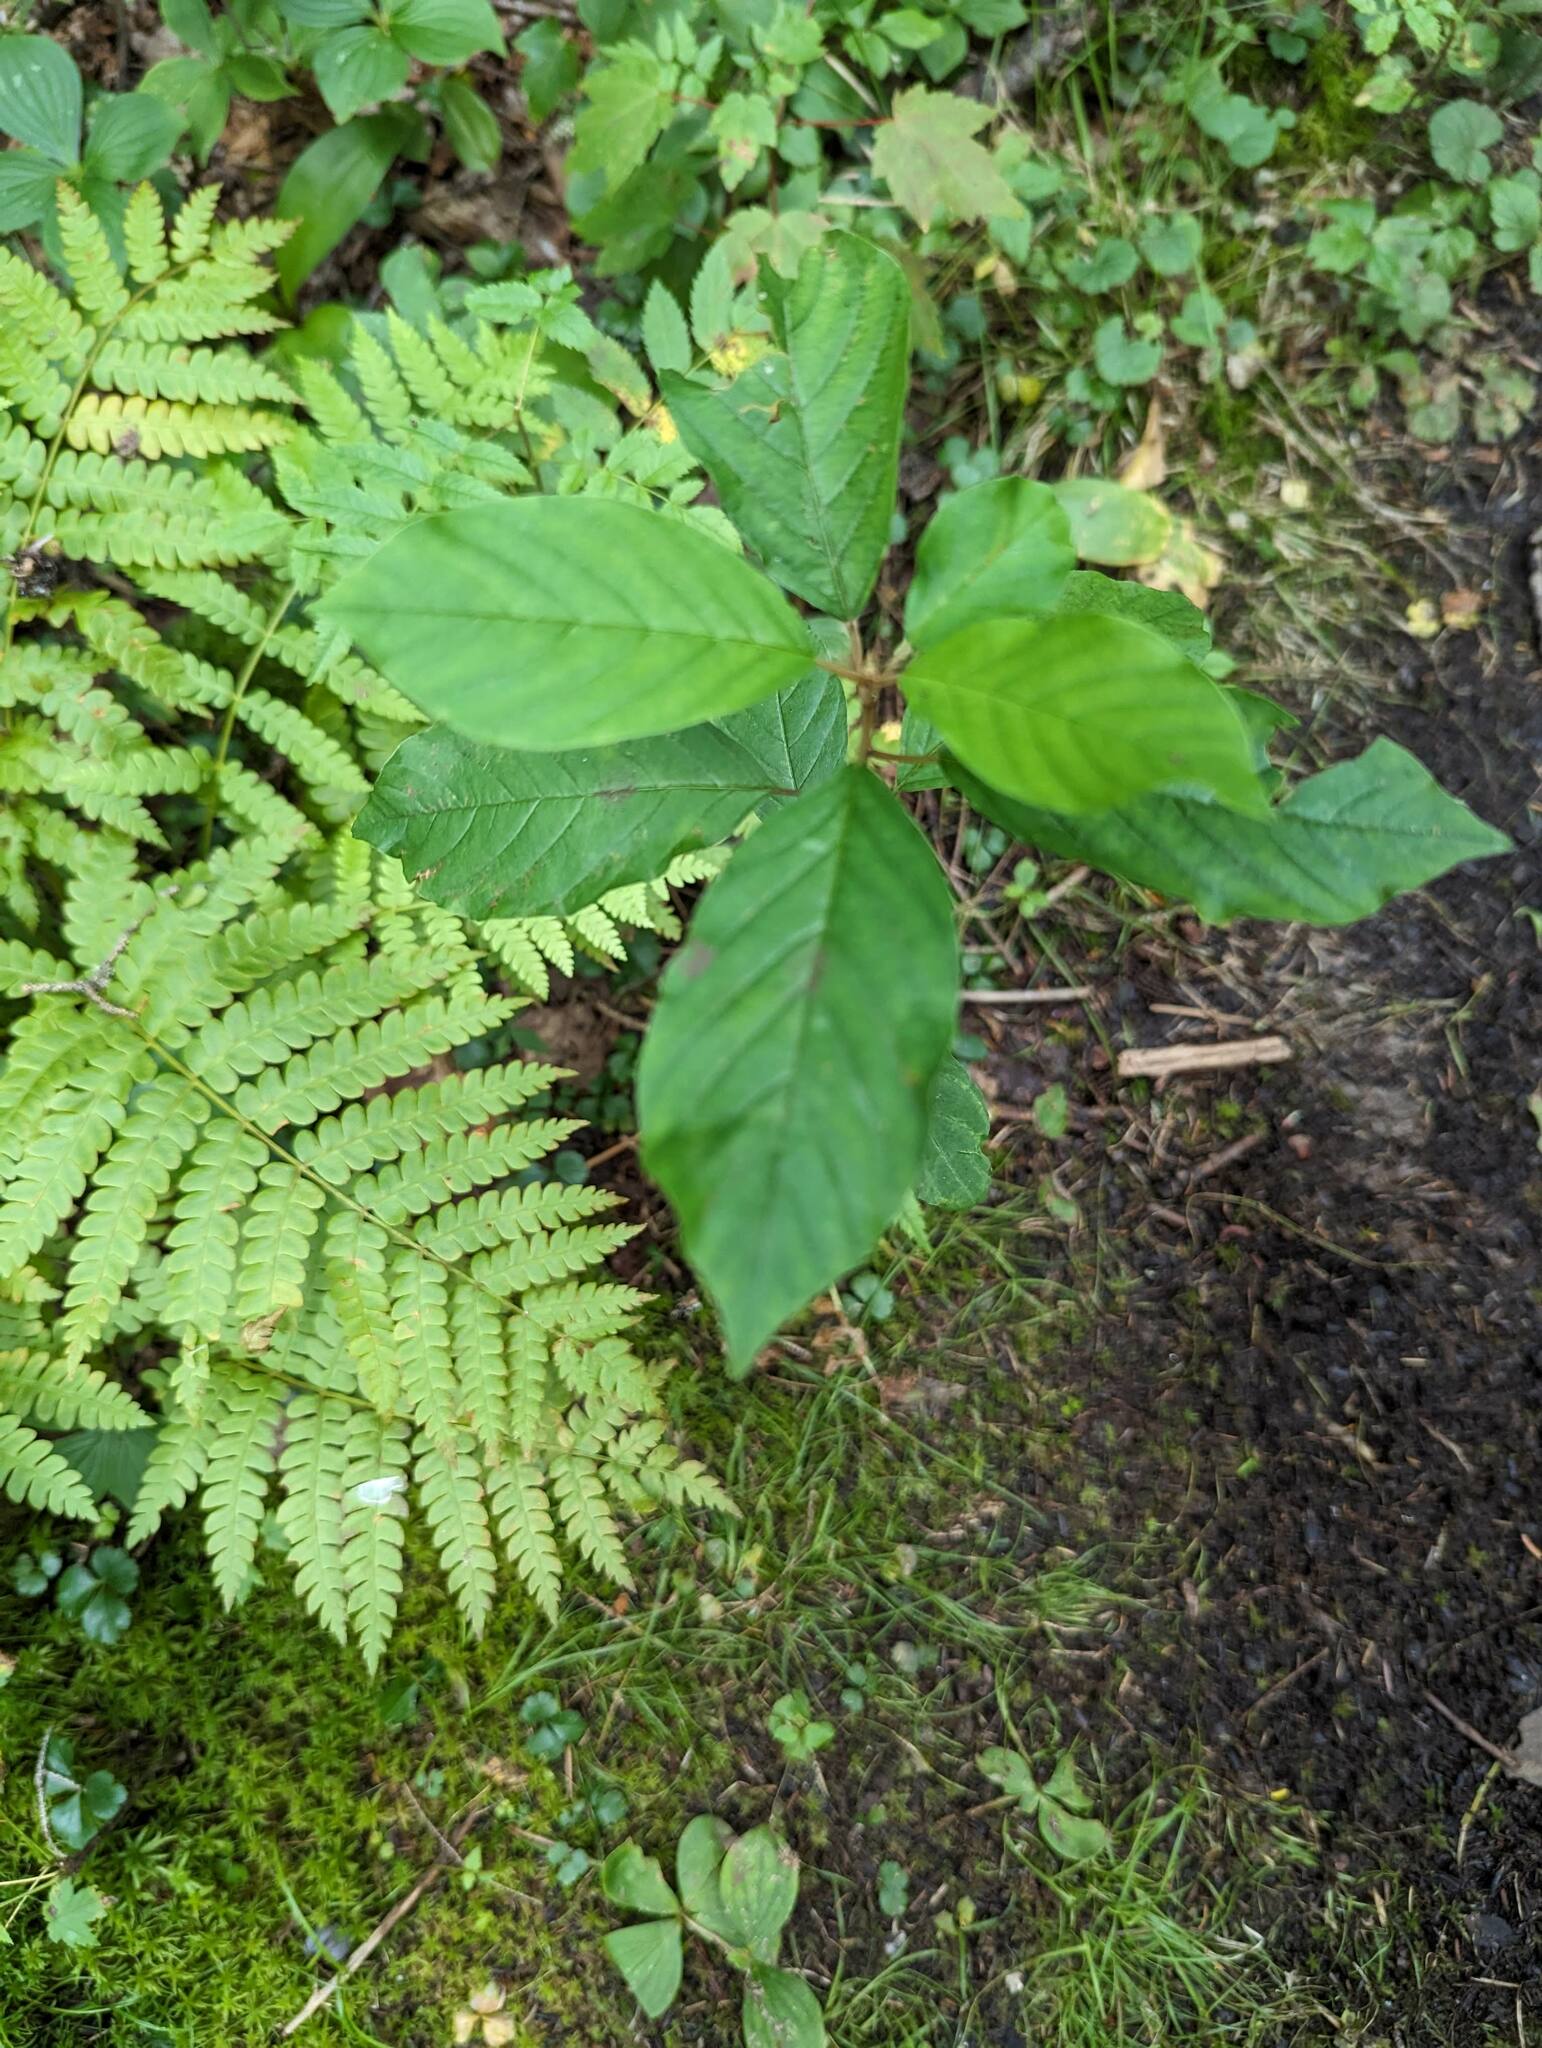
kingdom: Plantae
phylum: Tracheophyta
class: Magnoliopsida
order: Rosales
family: Rhamnaceae
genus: Frangula
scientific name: Frangula alnus
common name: Alder buckthorn
